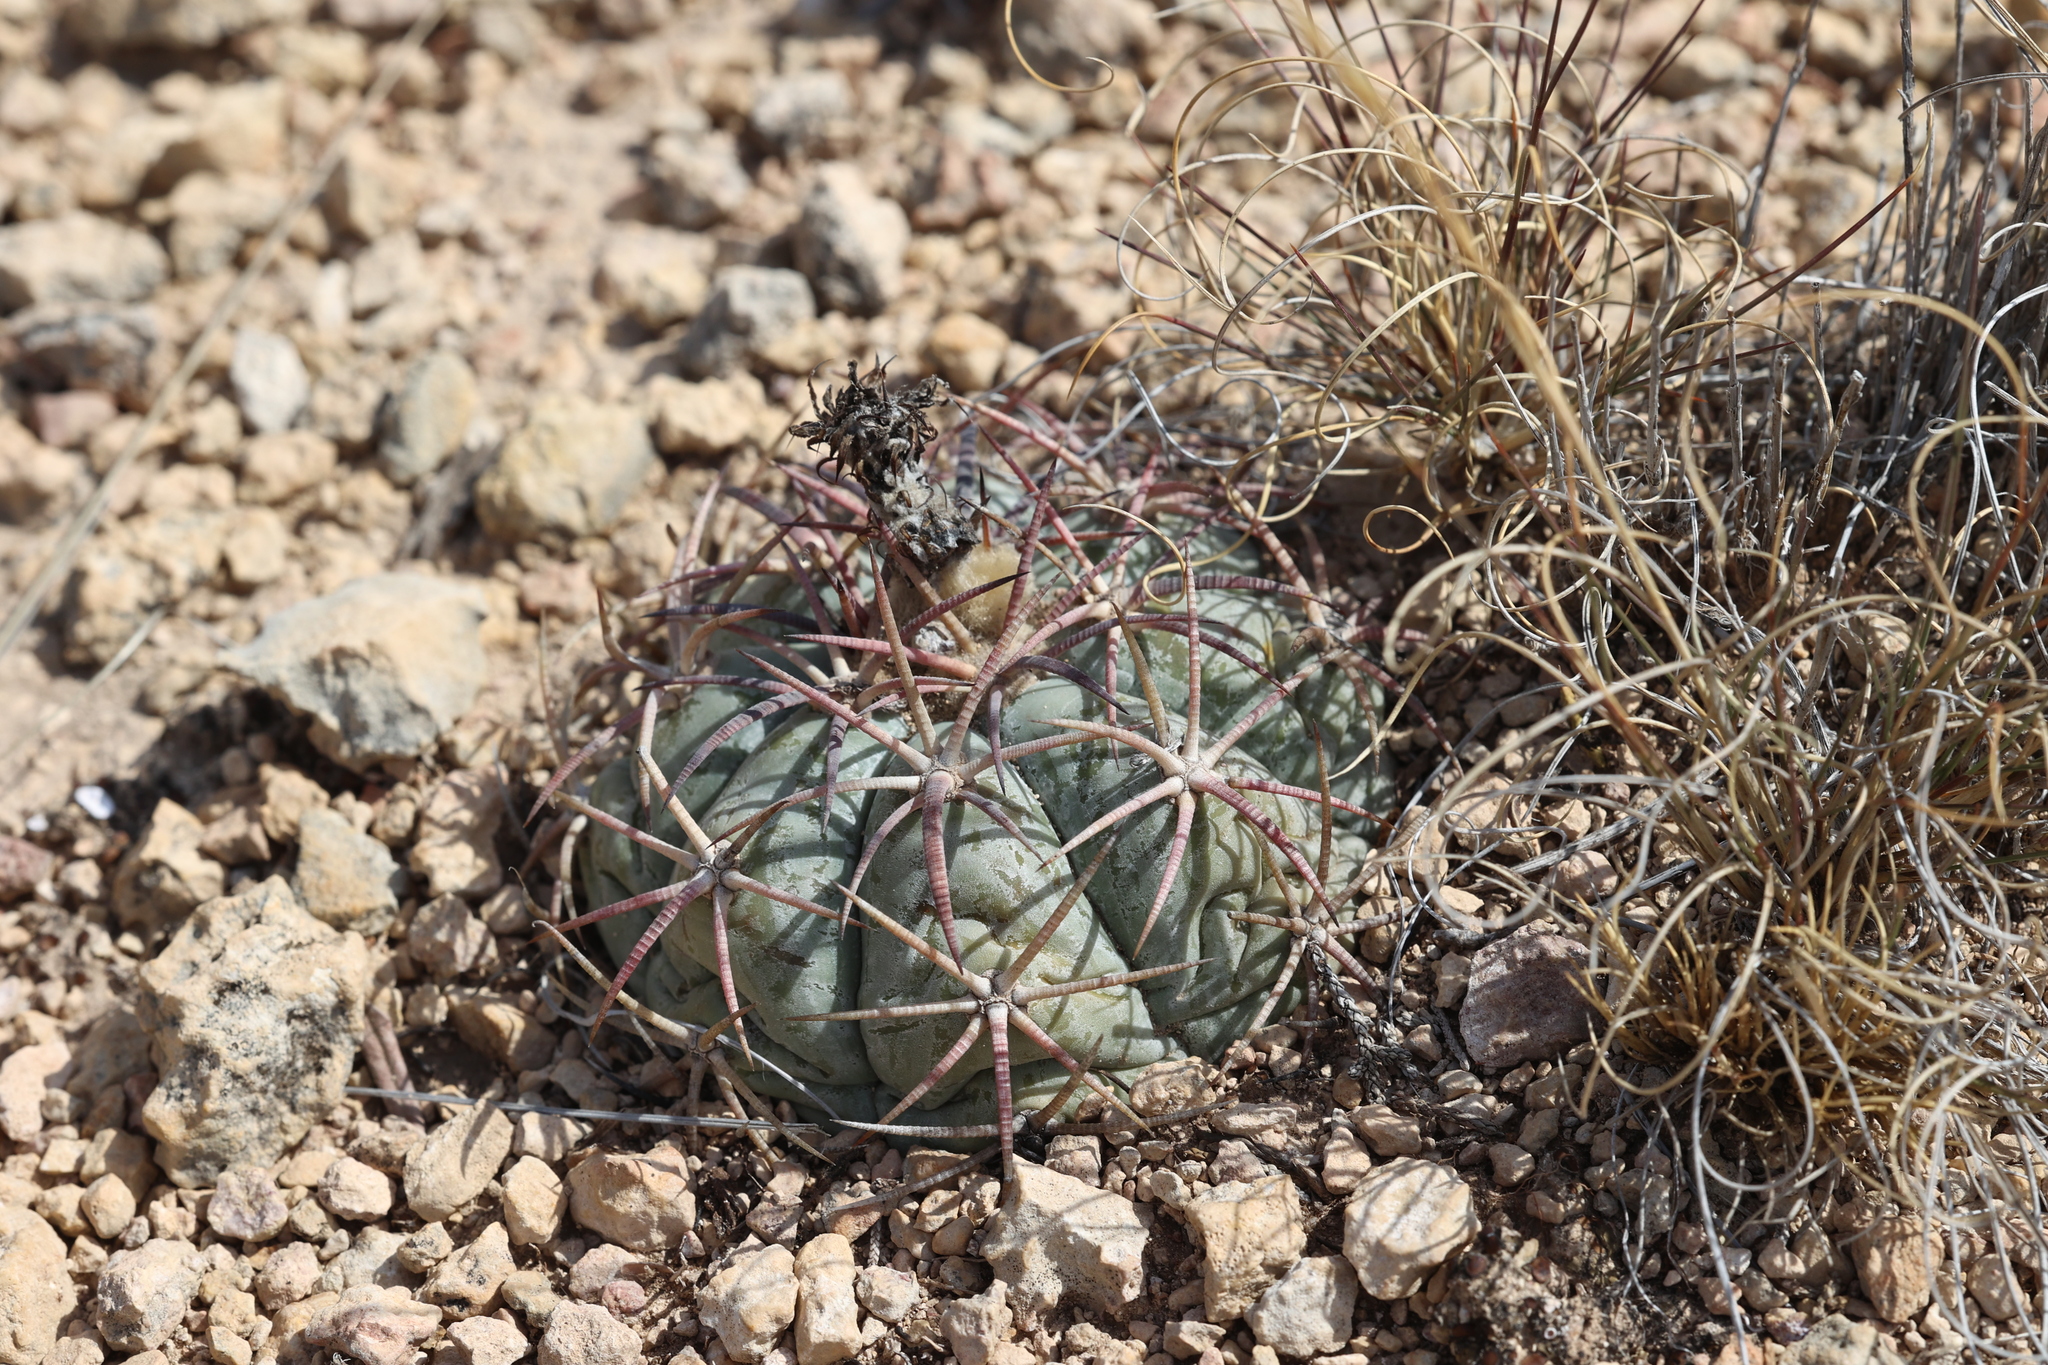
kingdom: Plantae
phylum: Tracheophyta
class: Magnoliopsida
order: Caryophyllales
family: Cactaceae
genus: Echinocactus
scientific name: Echinocactus horizonthalonius
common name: Devilshead
